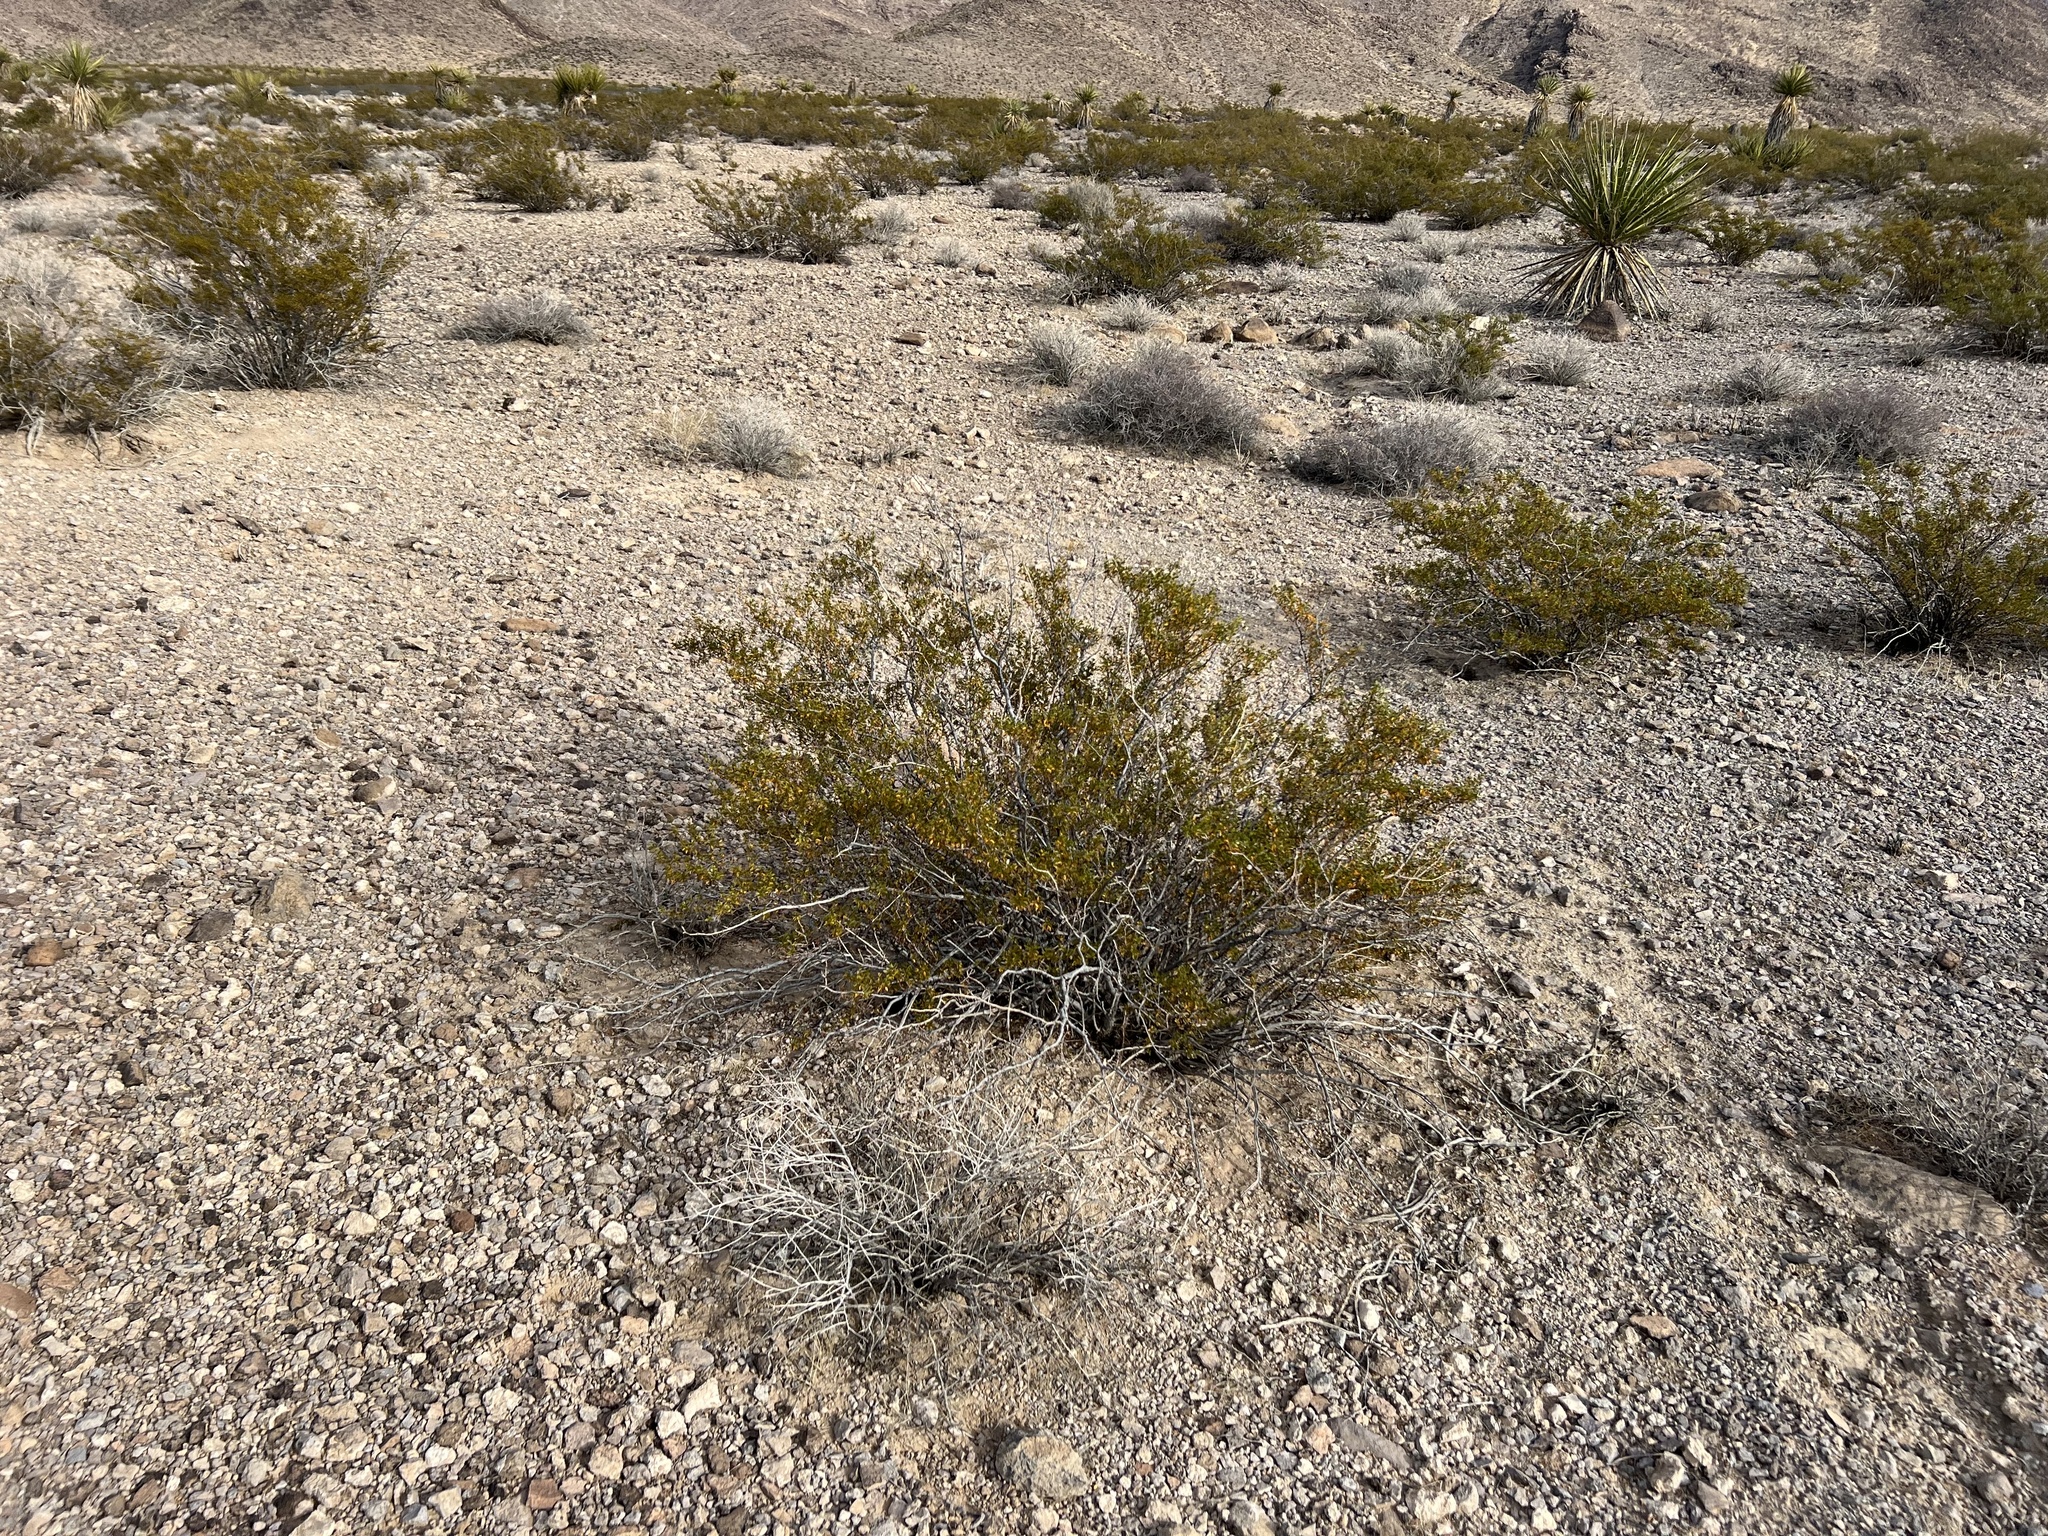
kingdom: Plantae
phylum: Tracheophyta
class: Magnoliopsida
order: Zygophyllales
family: Zygophyllaceae
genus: Larrea
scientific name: Larrea tridentata
